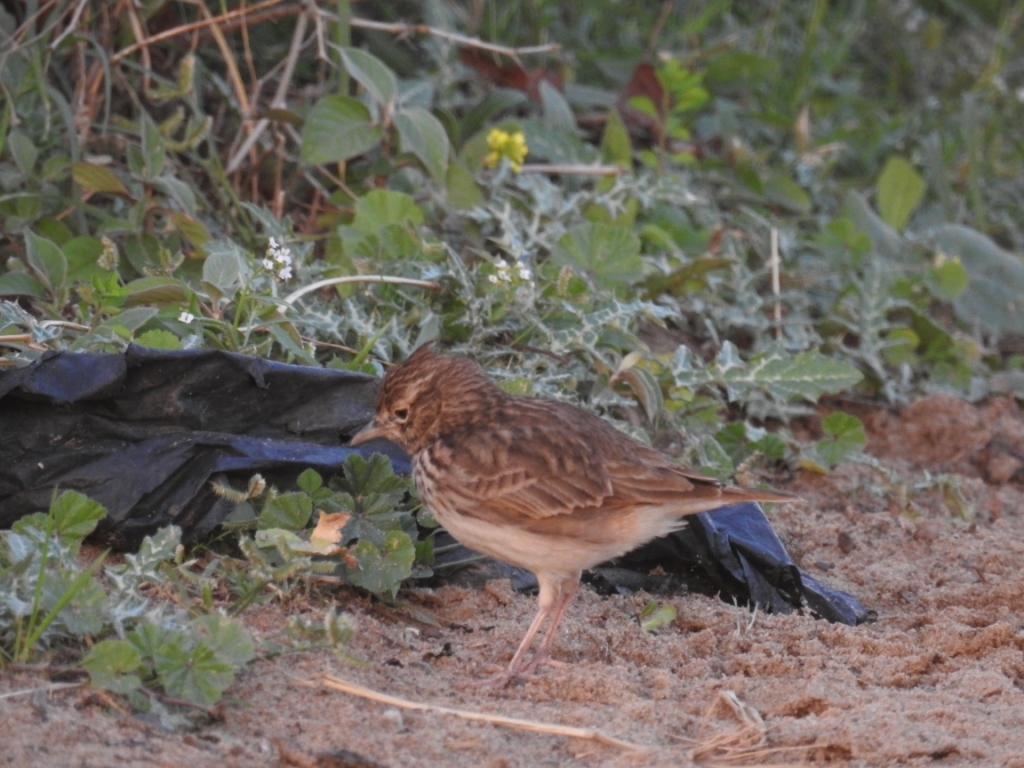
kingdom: Animalia
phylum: Chordata
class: Aves
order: Passeriformes
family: Alaudidae
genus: Galerida
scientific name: Galerida theklae
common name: Thekla lark
